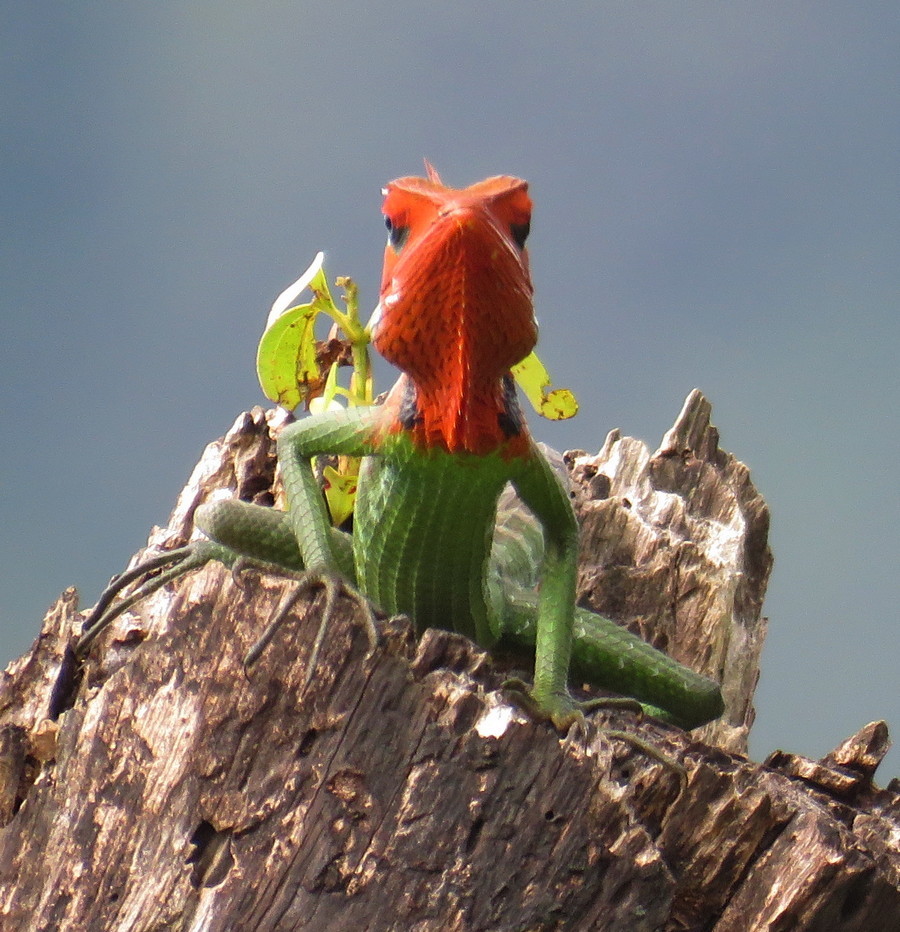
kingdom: Animalia
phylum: Chordata
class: Squamata
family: Agamidae
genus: Calotes
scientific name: Calotes calotes
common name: Common green forest lizard
